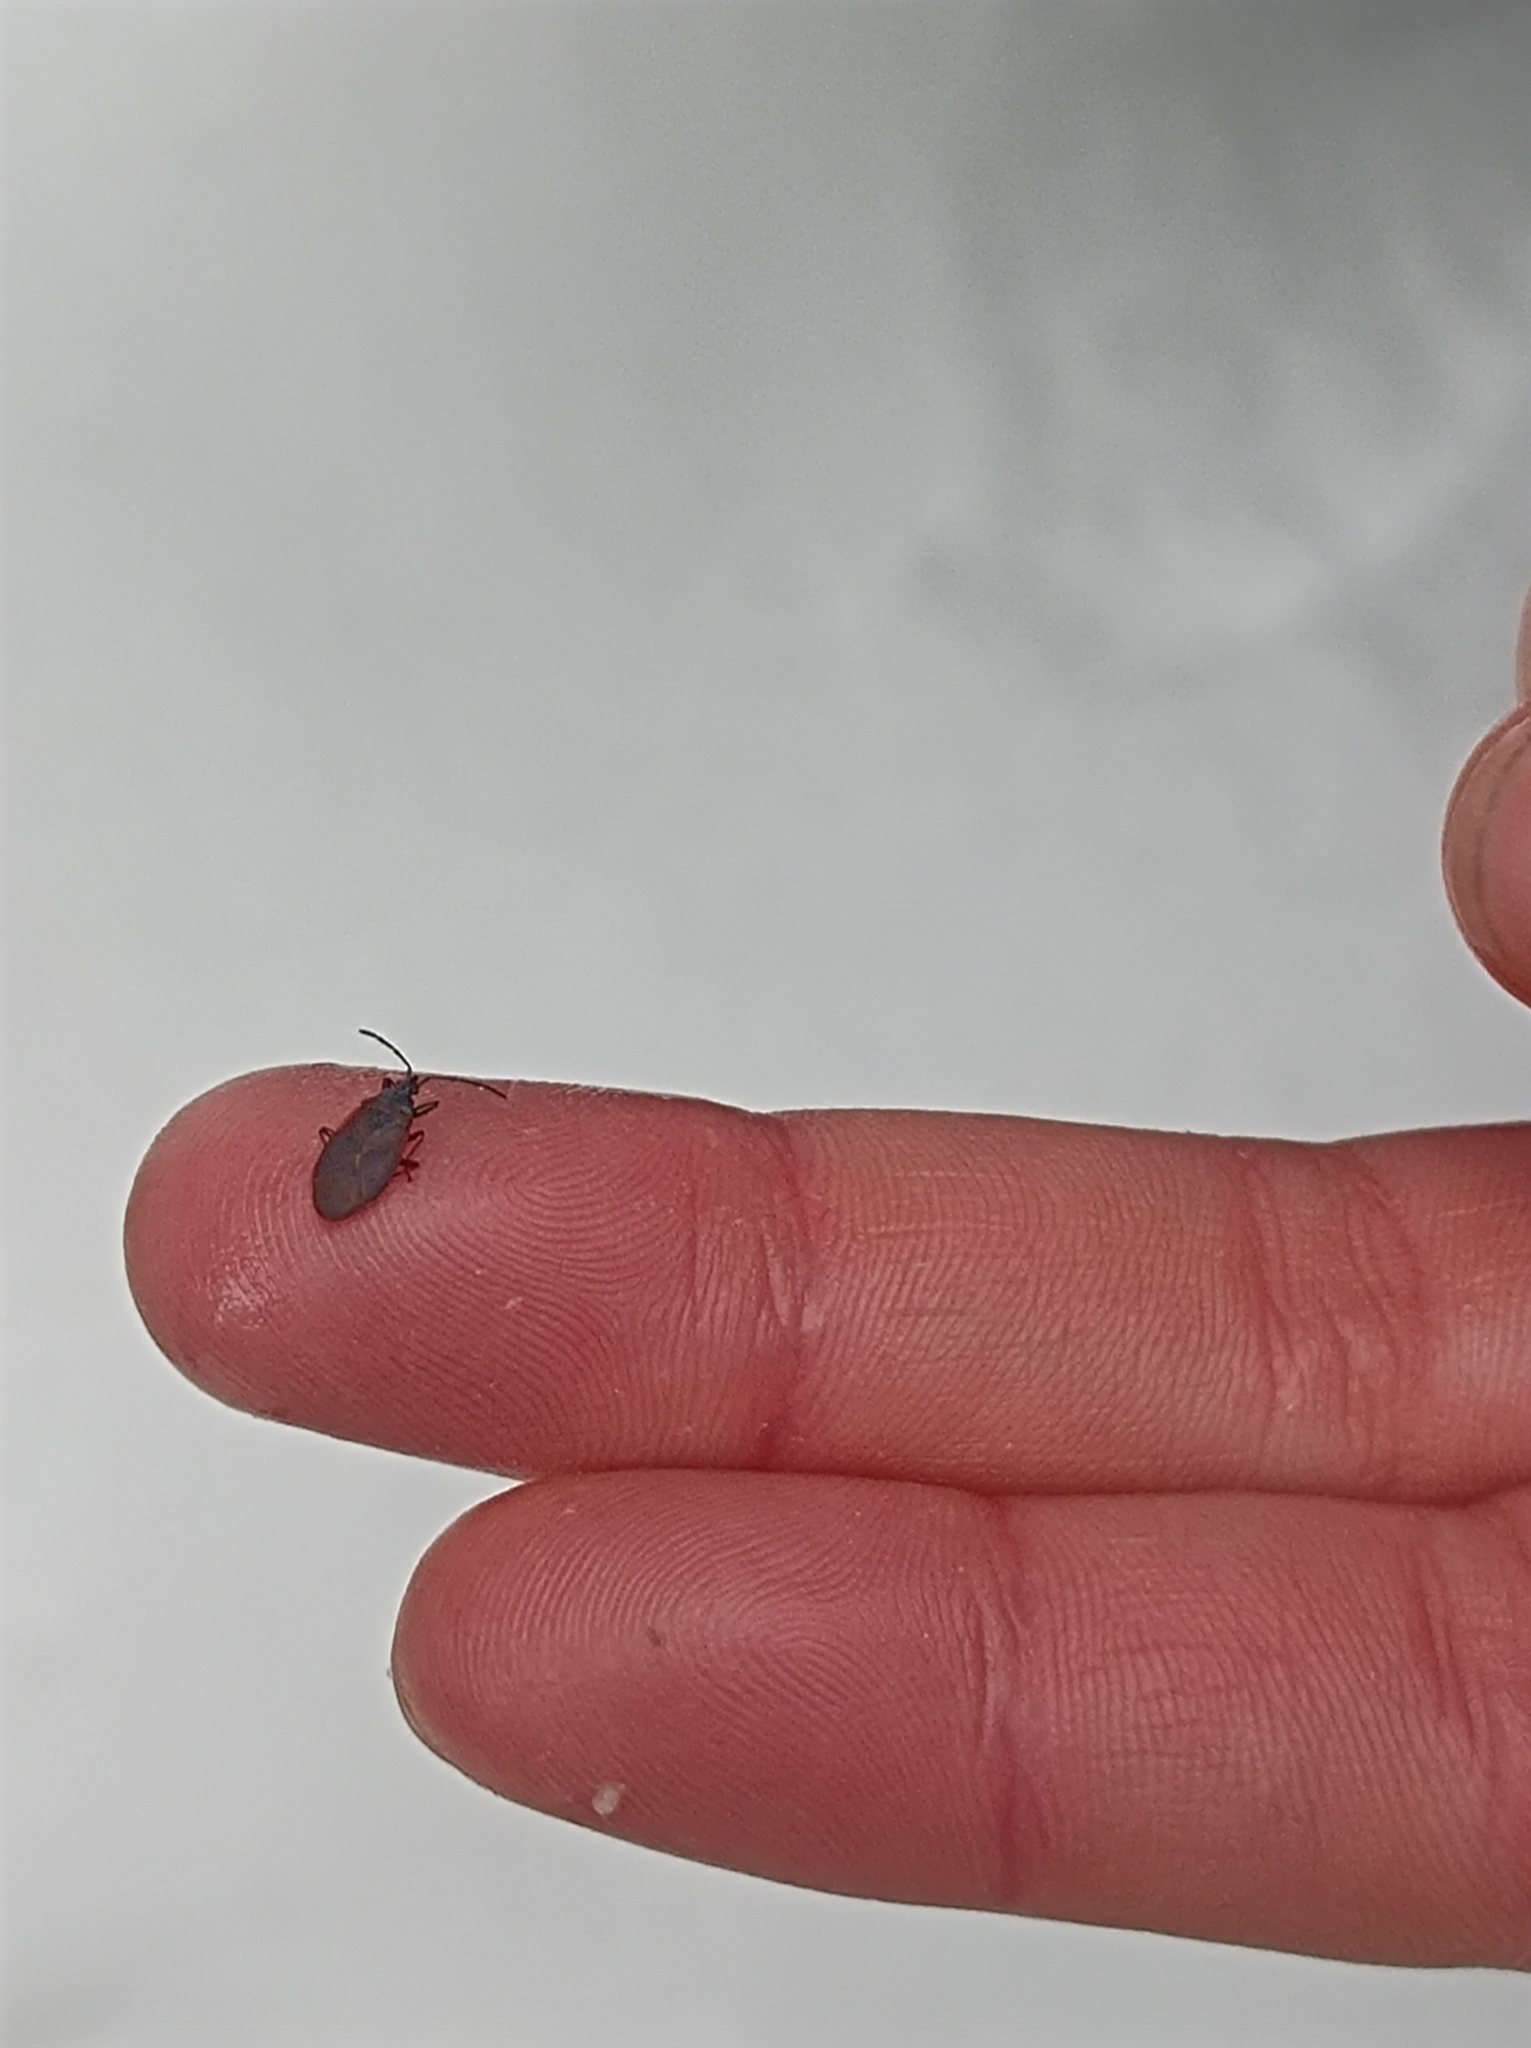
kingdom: Animalia
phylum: Arthropoda
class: Insecta
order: Hemiptera
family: Rhyparochromidae
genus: Gastrodes
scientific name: Gastrodes grossipes
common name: Pine cone bug
